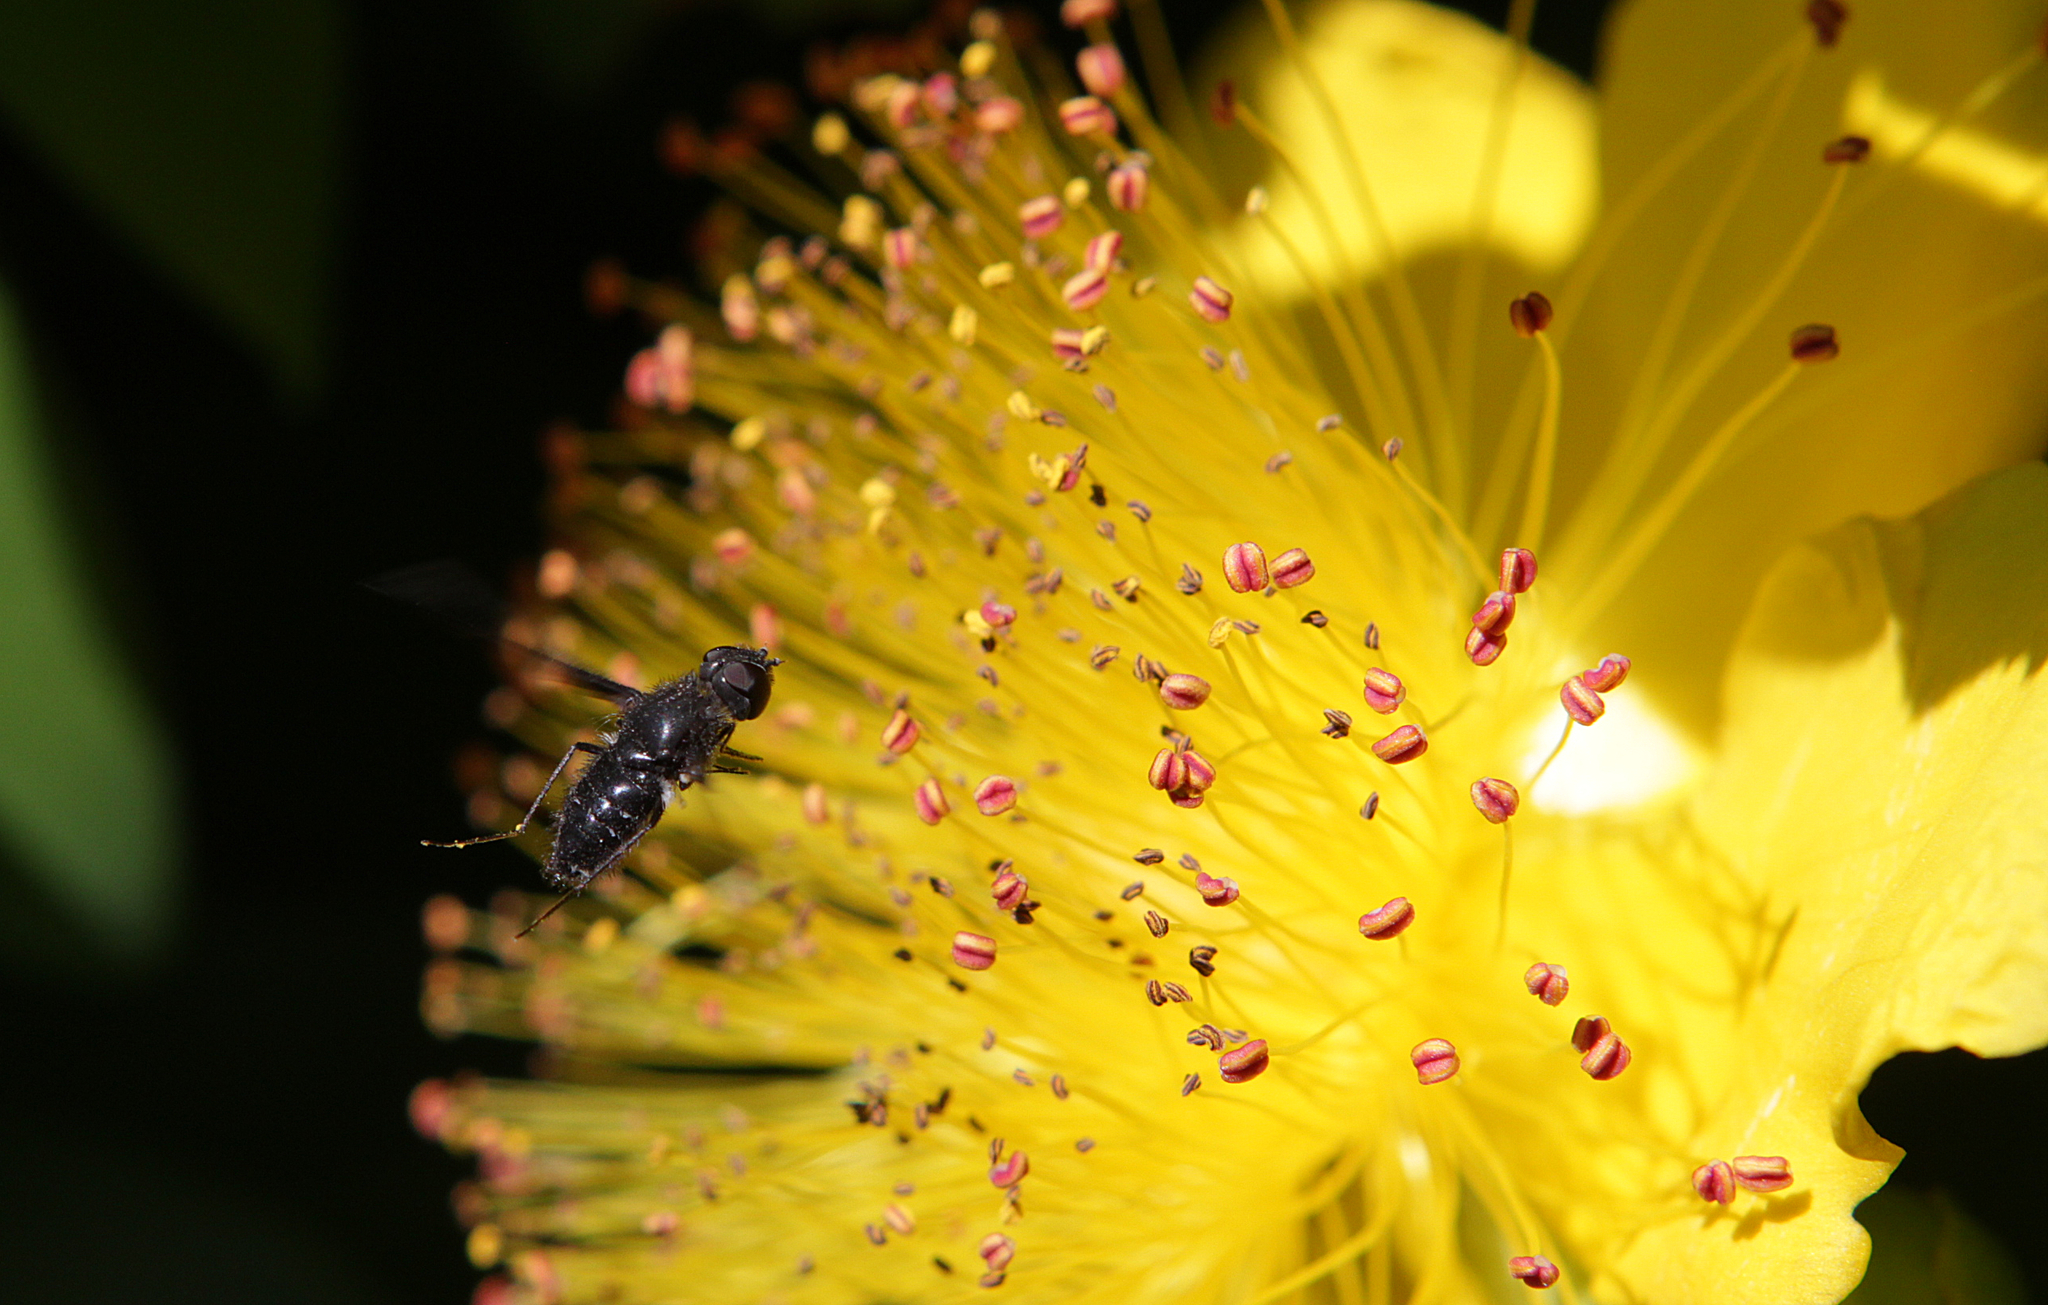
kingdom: Animalia
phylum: Arthropoda
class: Insecta
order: Diptera
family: Bombyliidae
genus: Anthrax
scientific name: Anthrax anthrax
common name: Anthracite bee-fly
